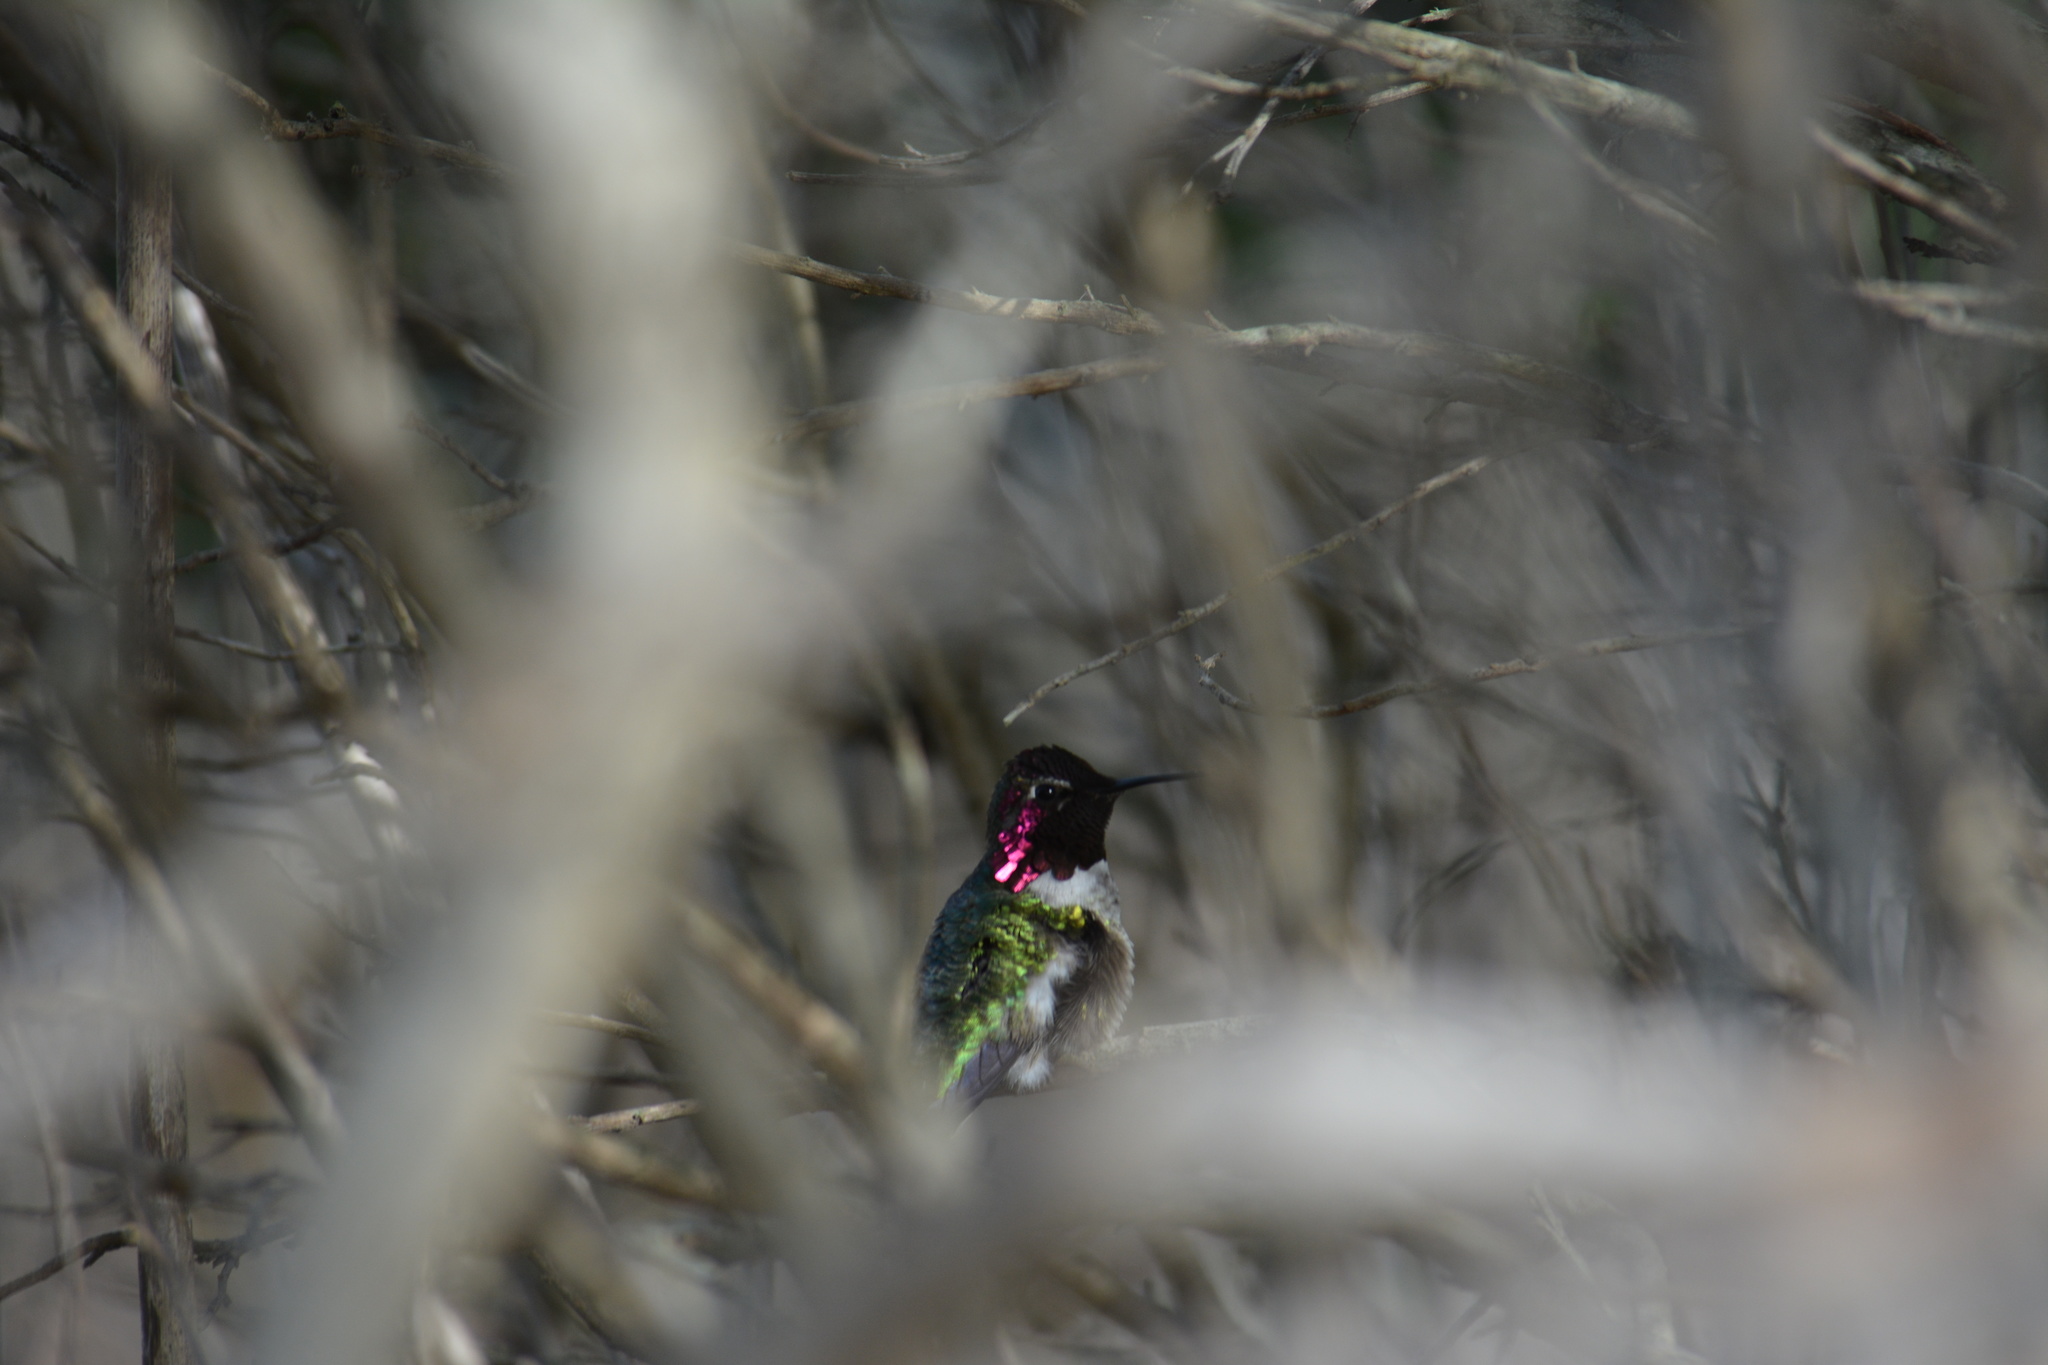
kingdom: Animalia
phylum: Chordata
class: Aves
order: Apodiformes
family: Trochilidae
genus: Calypte
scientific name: Calypte anna
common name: Anna's hummingbird
